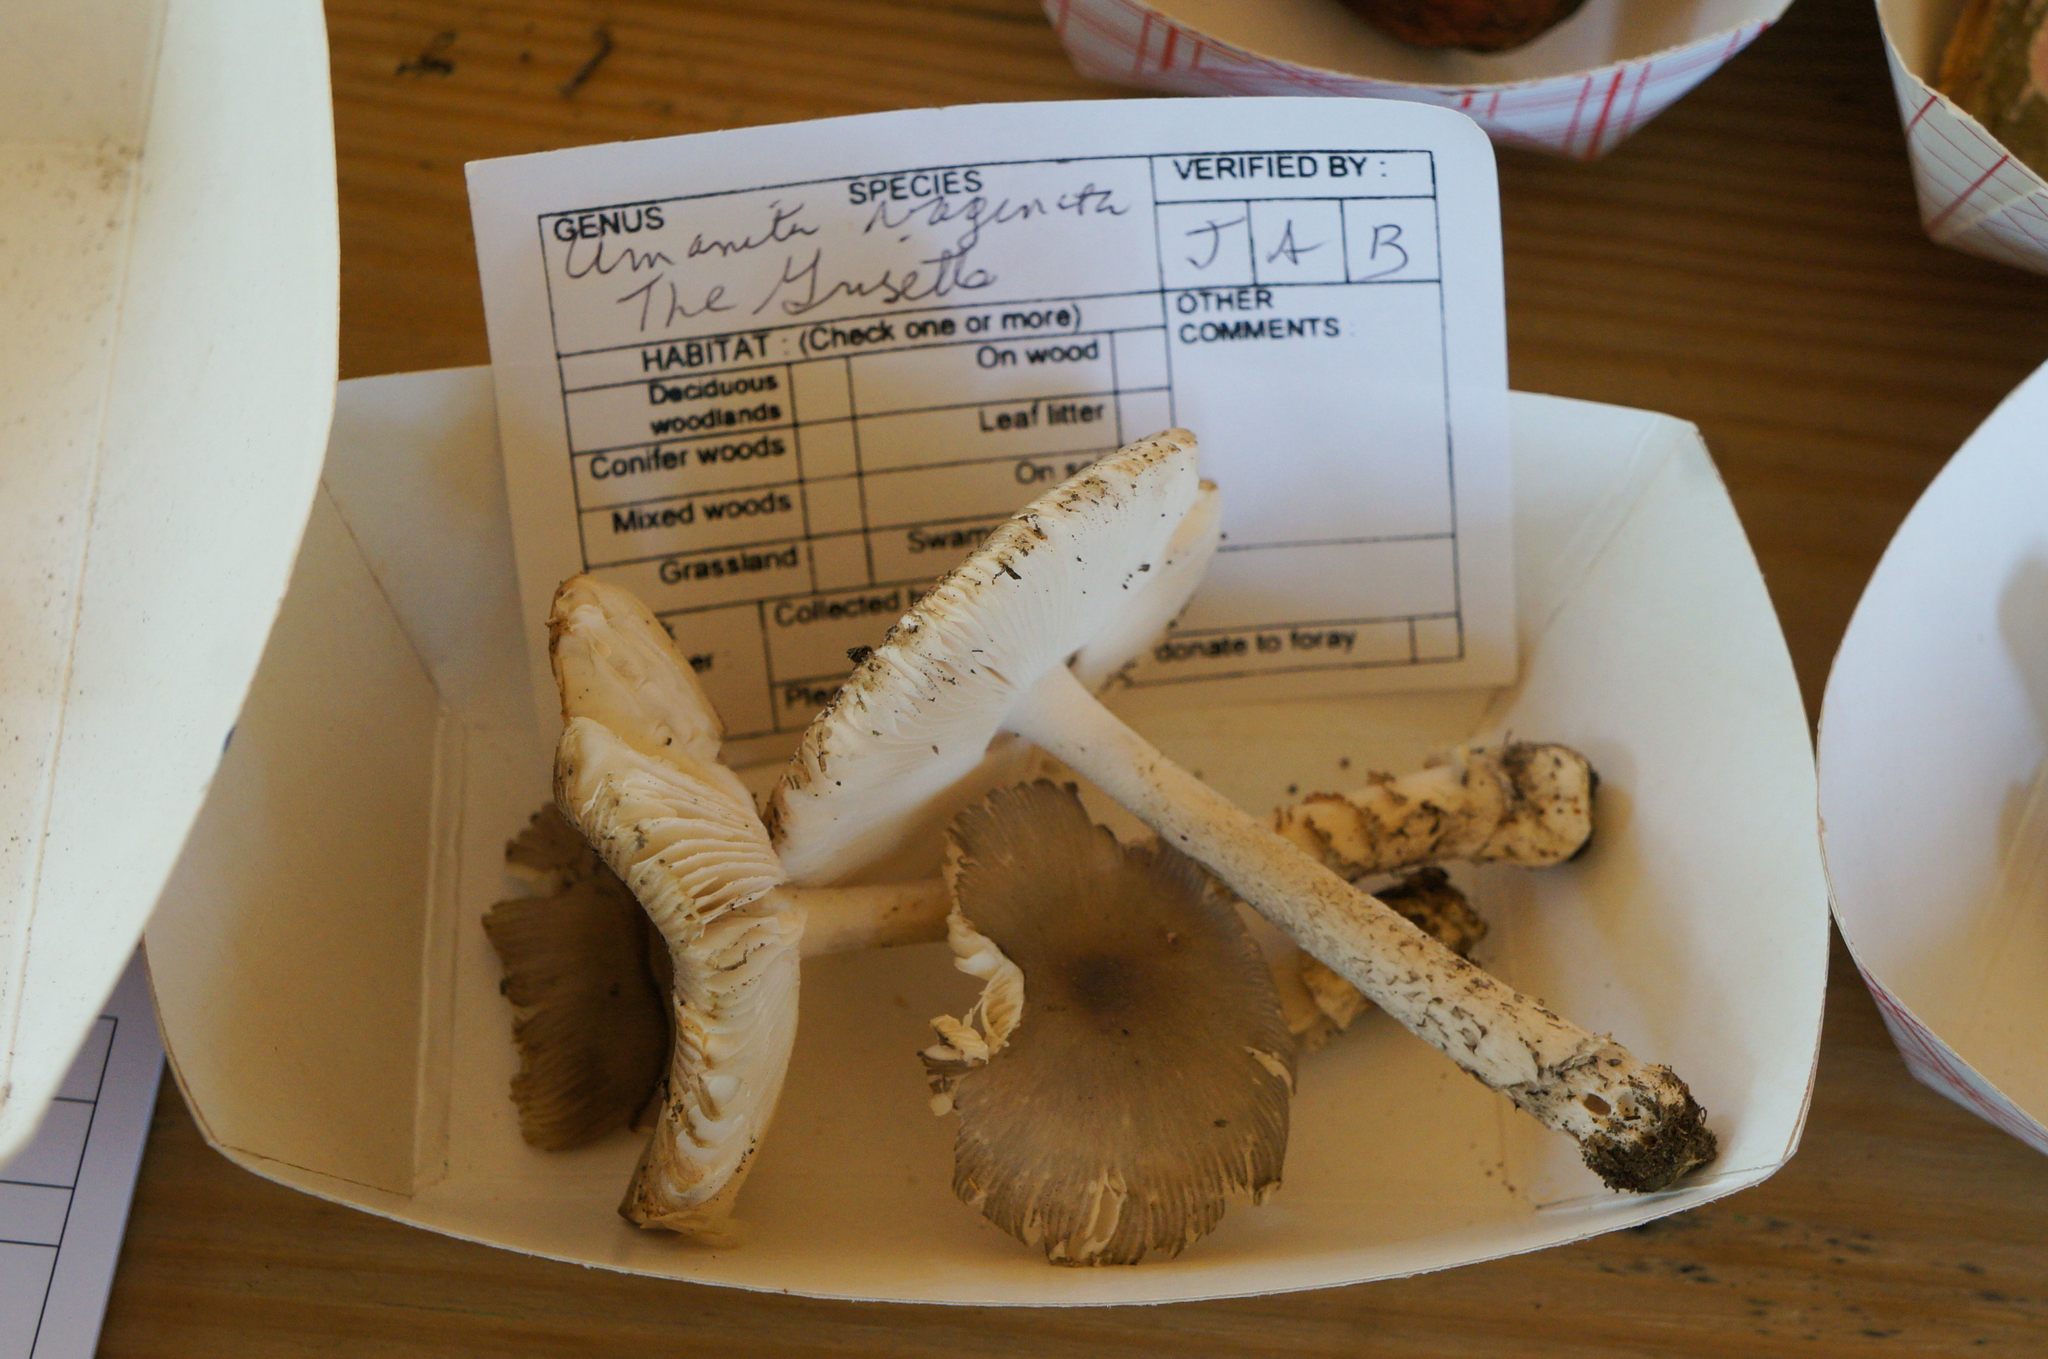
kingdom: Fungi
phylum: Basidiomycota
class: Agaricomycetes
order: Agaricales
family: Amanitaceae
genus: Amanita
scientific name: Amanita vaginata
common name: Grisette
